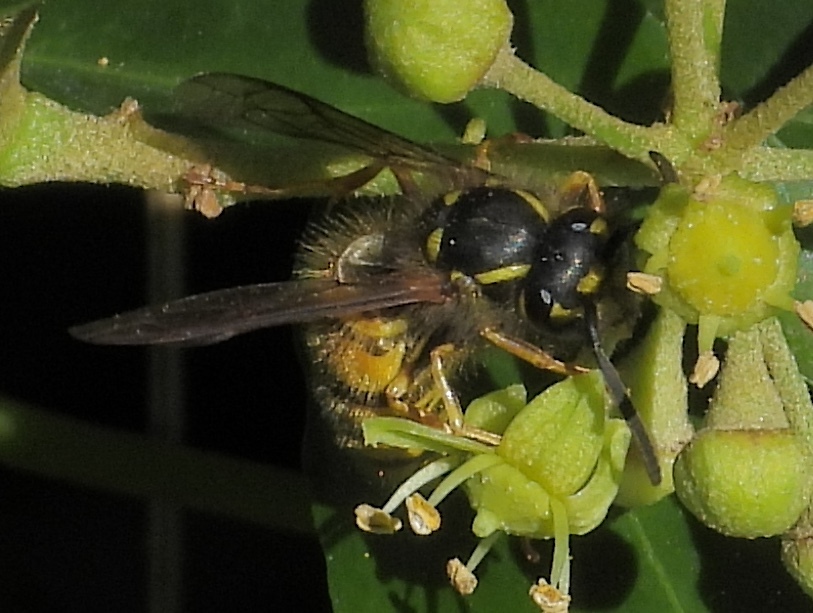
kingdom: Animalia
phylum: Arthropoda
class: Insecta
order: Hymenoptera
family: Vespidae
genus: Vespula
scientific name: Vespula vulgaris
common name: Common wasp
